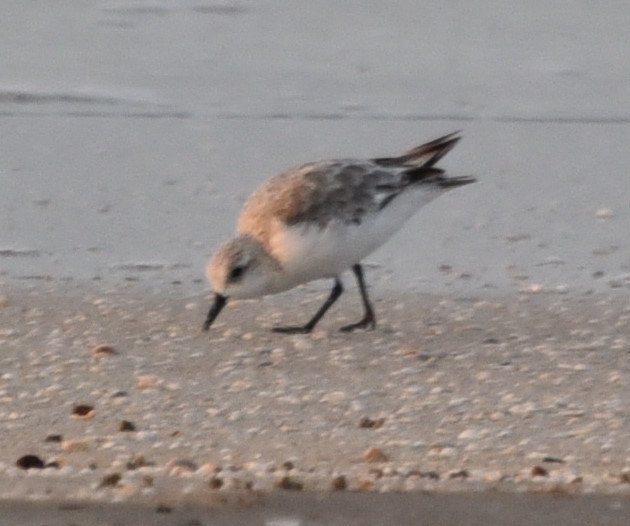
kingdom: Animalia
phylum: Chordata
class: Aves
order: Charadriiformes
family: Scolopacidae
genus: Calidris
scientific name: Calidris alba
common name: Sanderling
